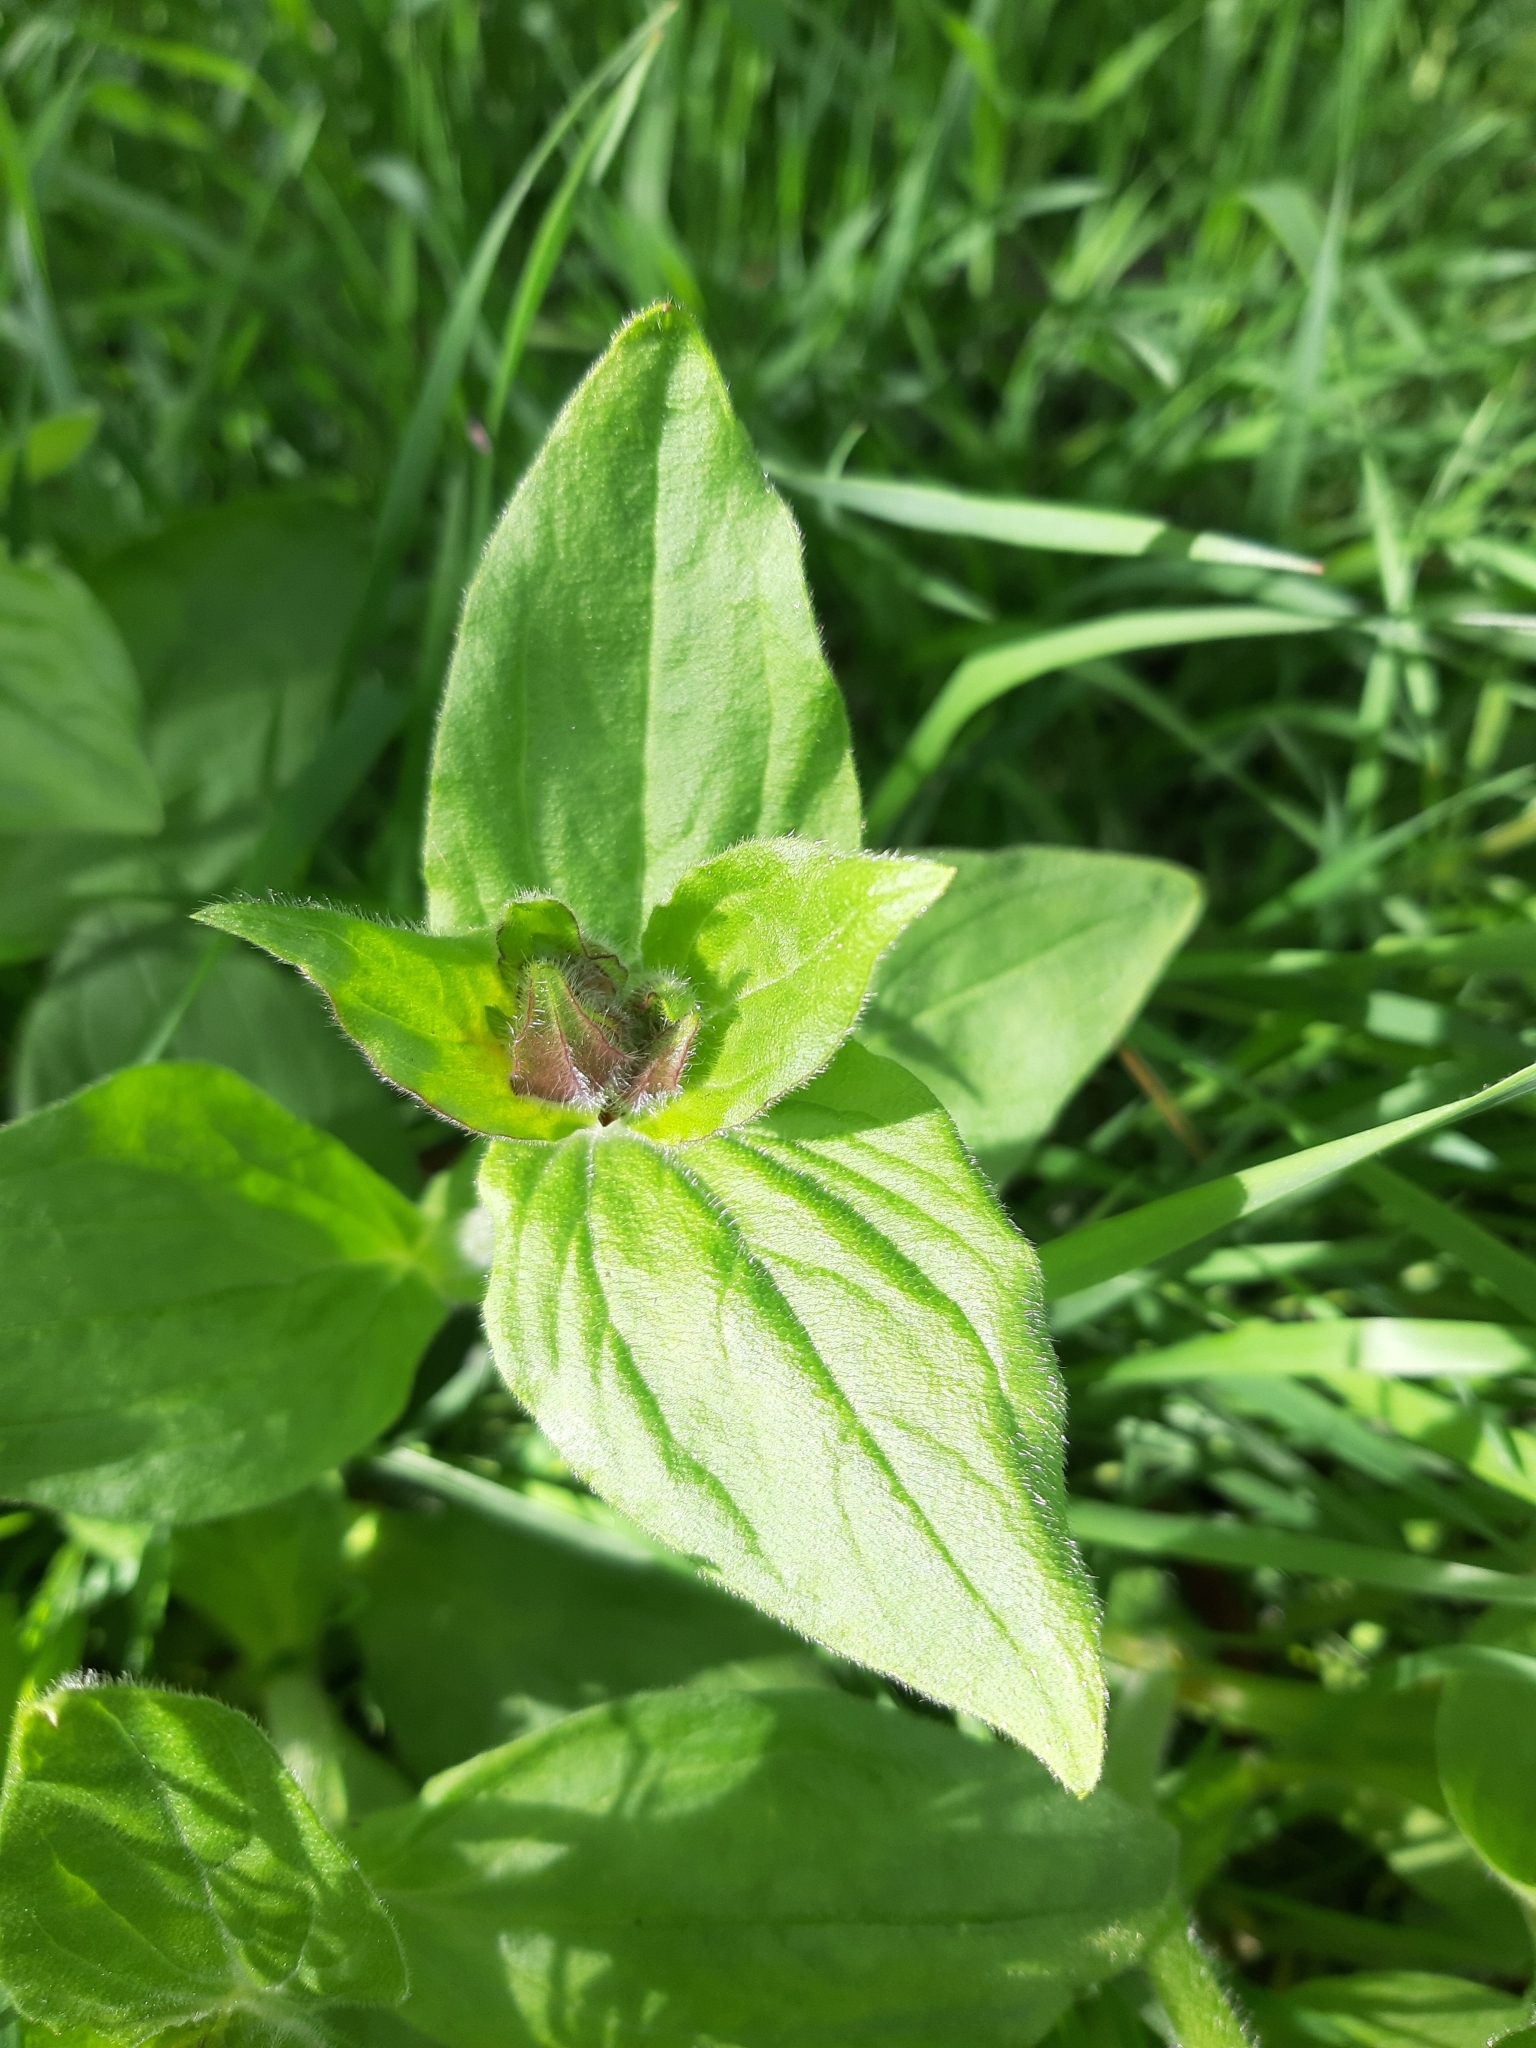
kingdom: Plantae
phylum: Tracheophyta
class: Magnoliopsida
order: Caryophyllales
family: Caryophyllaceae
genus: Silene
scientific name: Silene dioica
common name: Red campion
